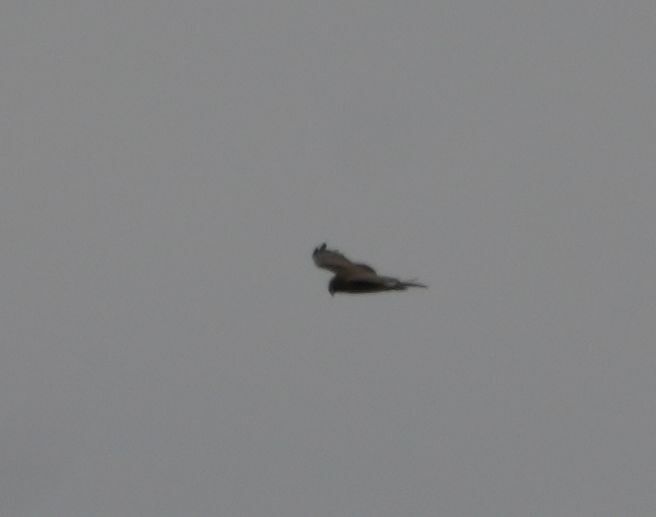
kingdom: Animalia
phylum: Chordata
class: Aves
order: Accipitriformes
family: Accipitridae
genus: Circus
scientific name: Circus cyaneus
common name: Hen harrier
